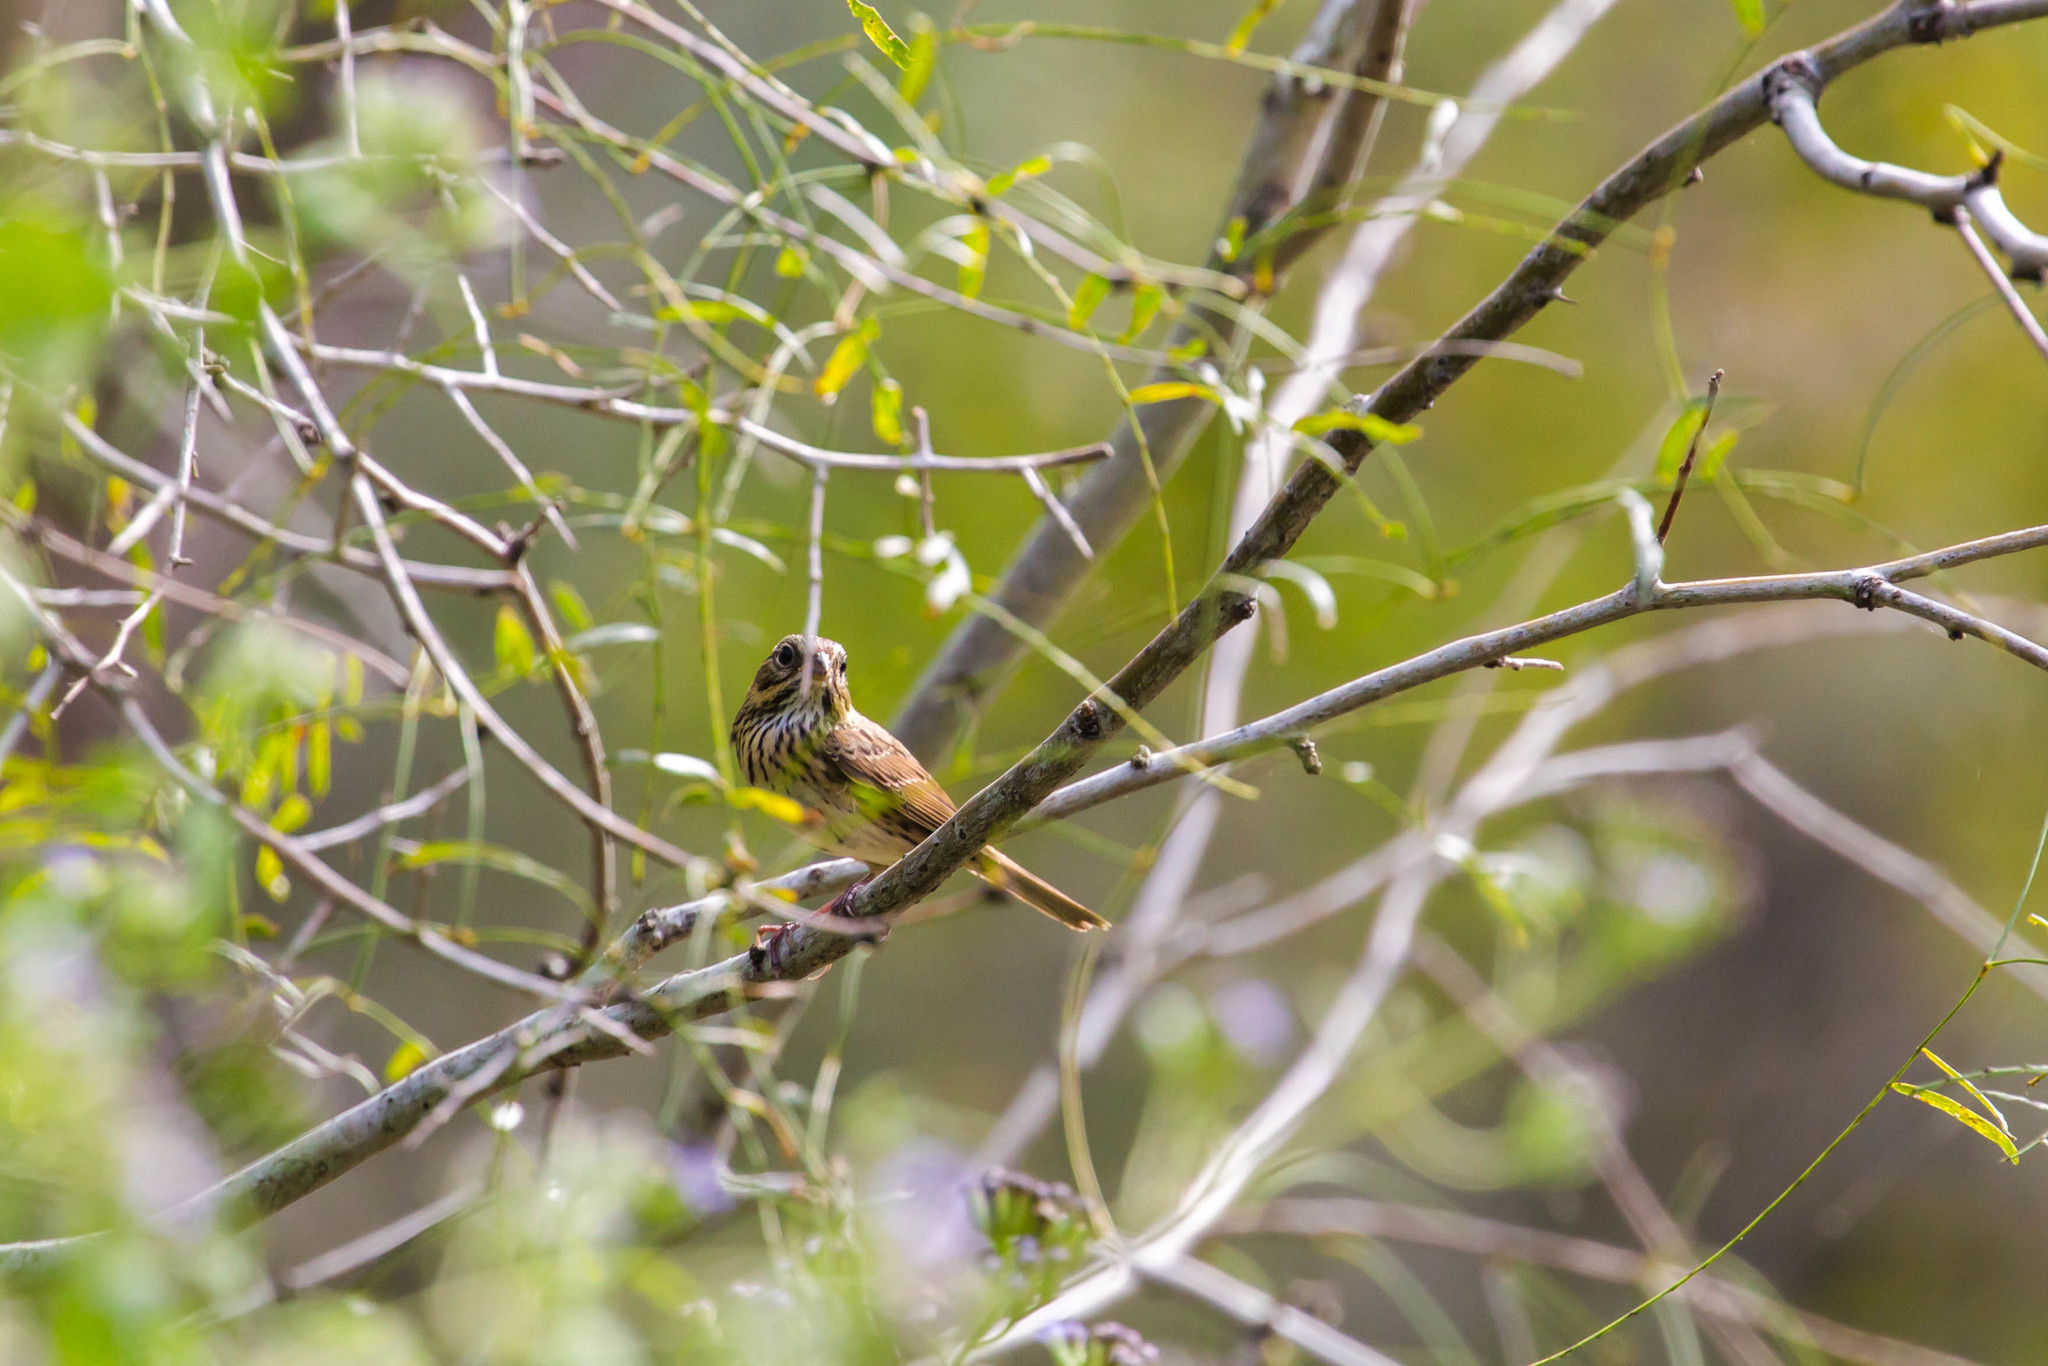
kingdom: Animalia
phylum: Chordata
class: Aves
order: Passeriformes
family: Passerellidae
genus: Melospiza
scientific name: Melospiza lincolnii
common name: Lincoln's sparrow
